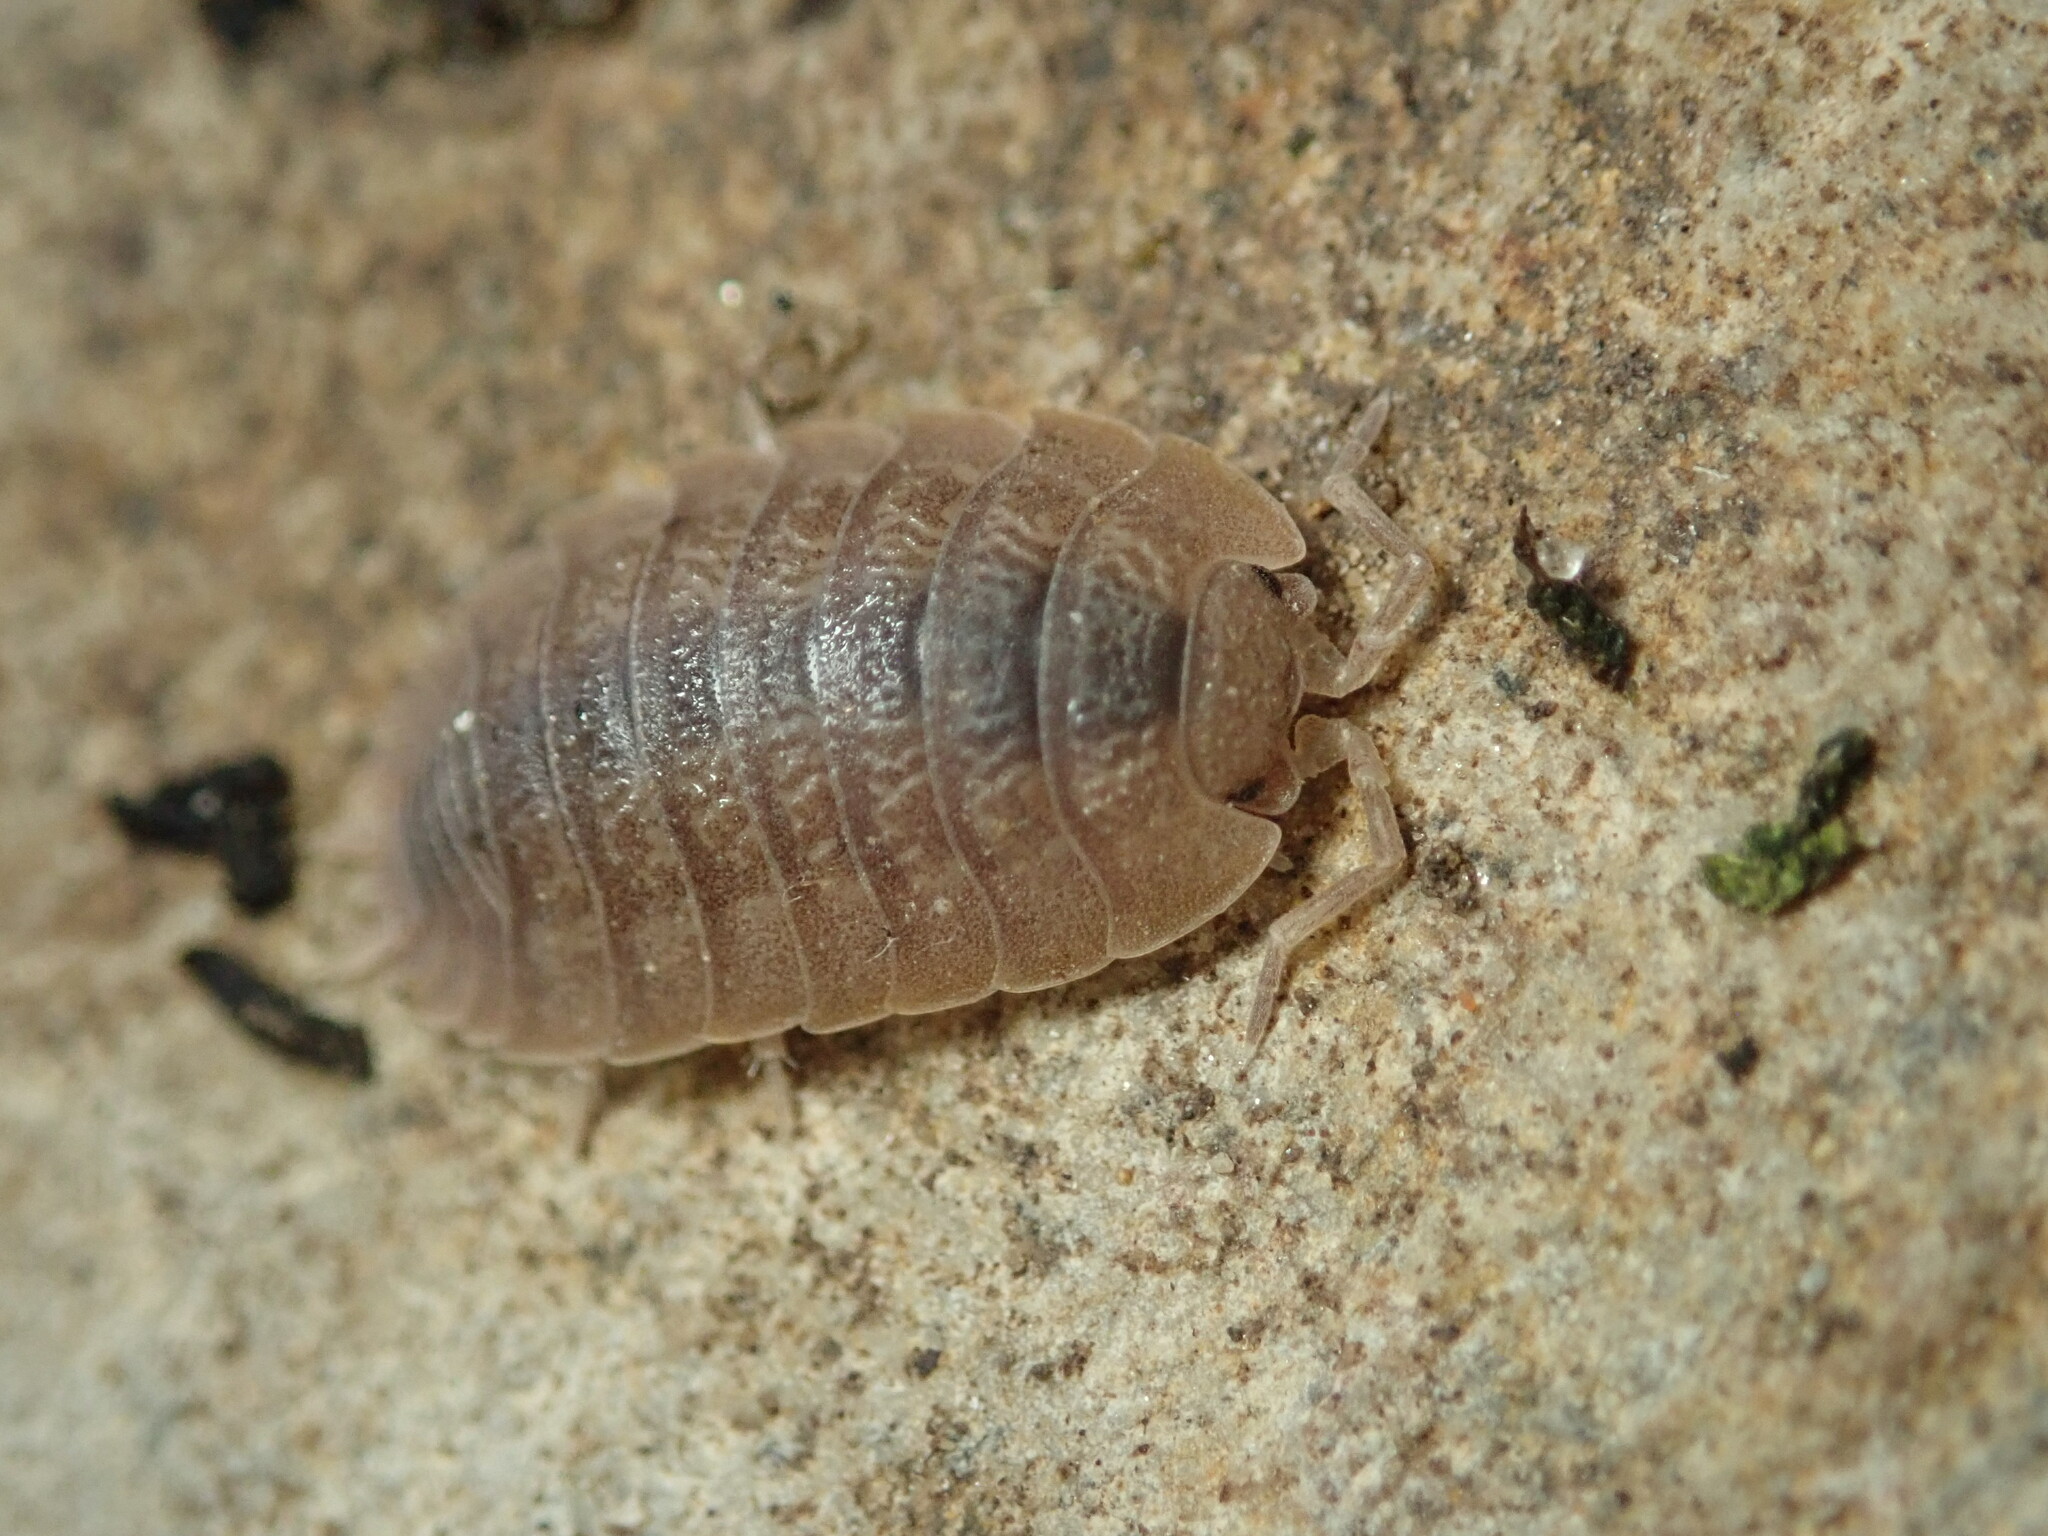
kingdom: Animalia
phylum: Arthropoda
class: Malacostraca
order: Isopoda
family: Porcellionidae
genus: Porcellio
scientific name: Porcellio dilatatus
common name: Isopod
